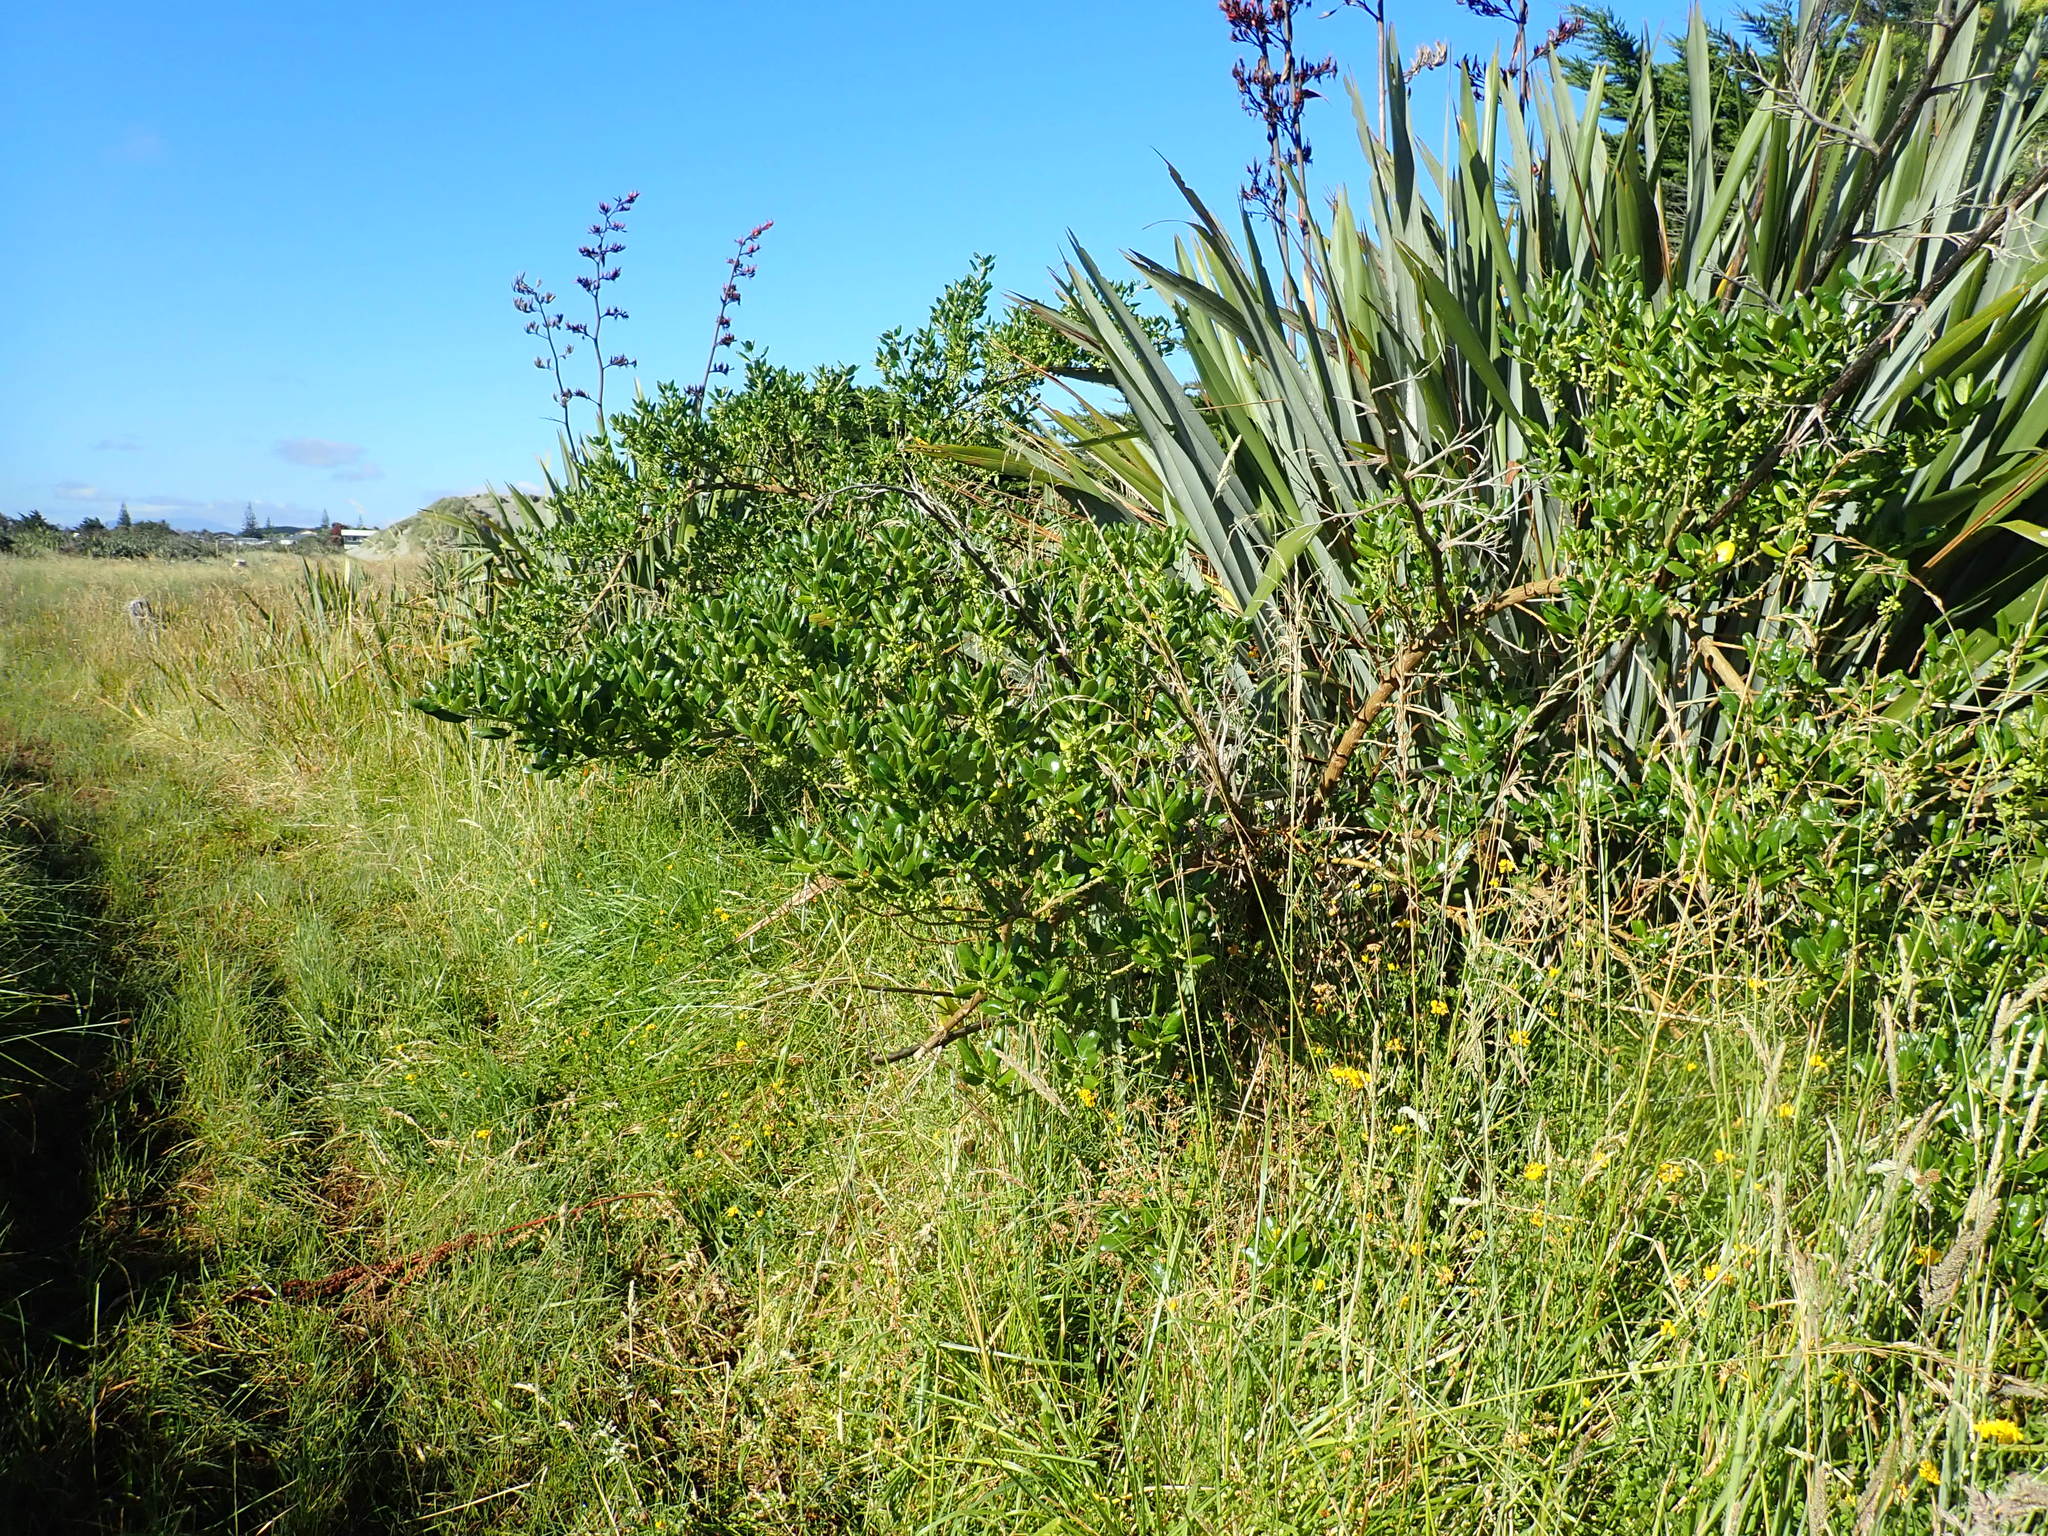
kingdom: Plantae
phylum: Tracheophyta
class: Magnoliopsida
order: Gentianales
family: Rubiaceae
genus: Coprosma
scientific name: Coprosma repens
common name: Tree bedstraw
